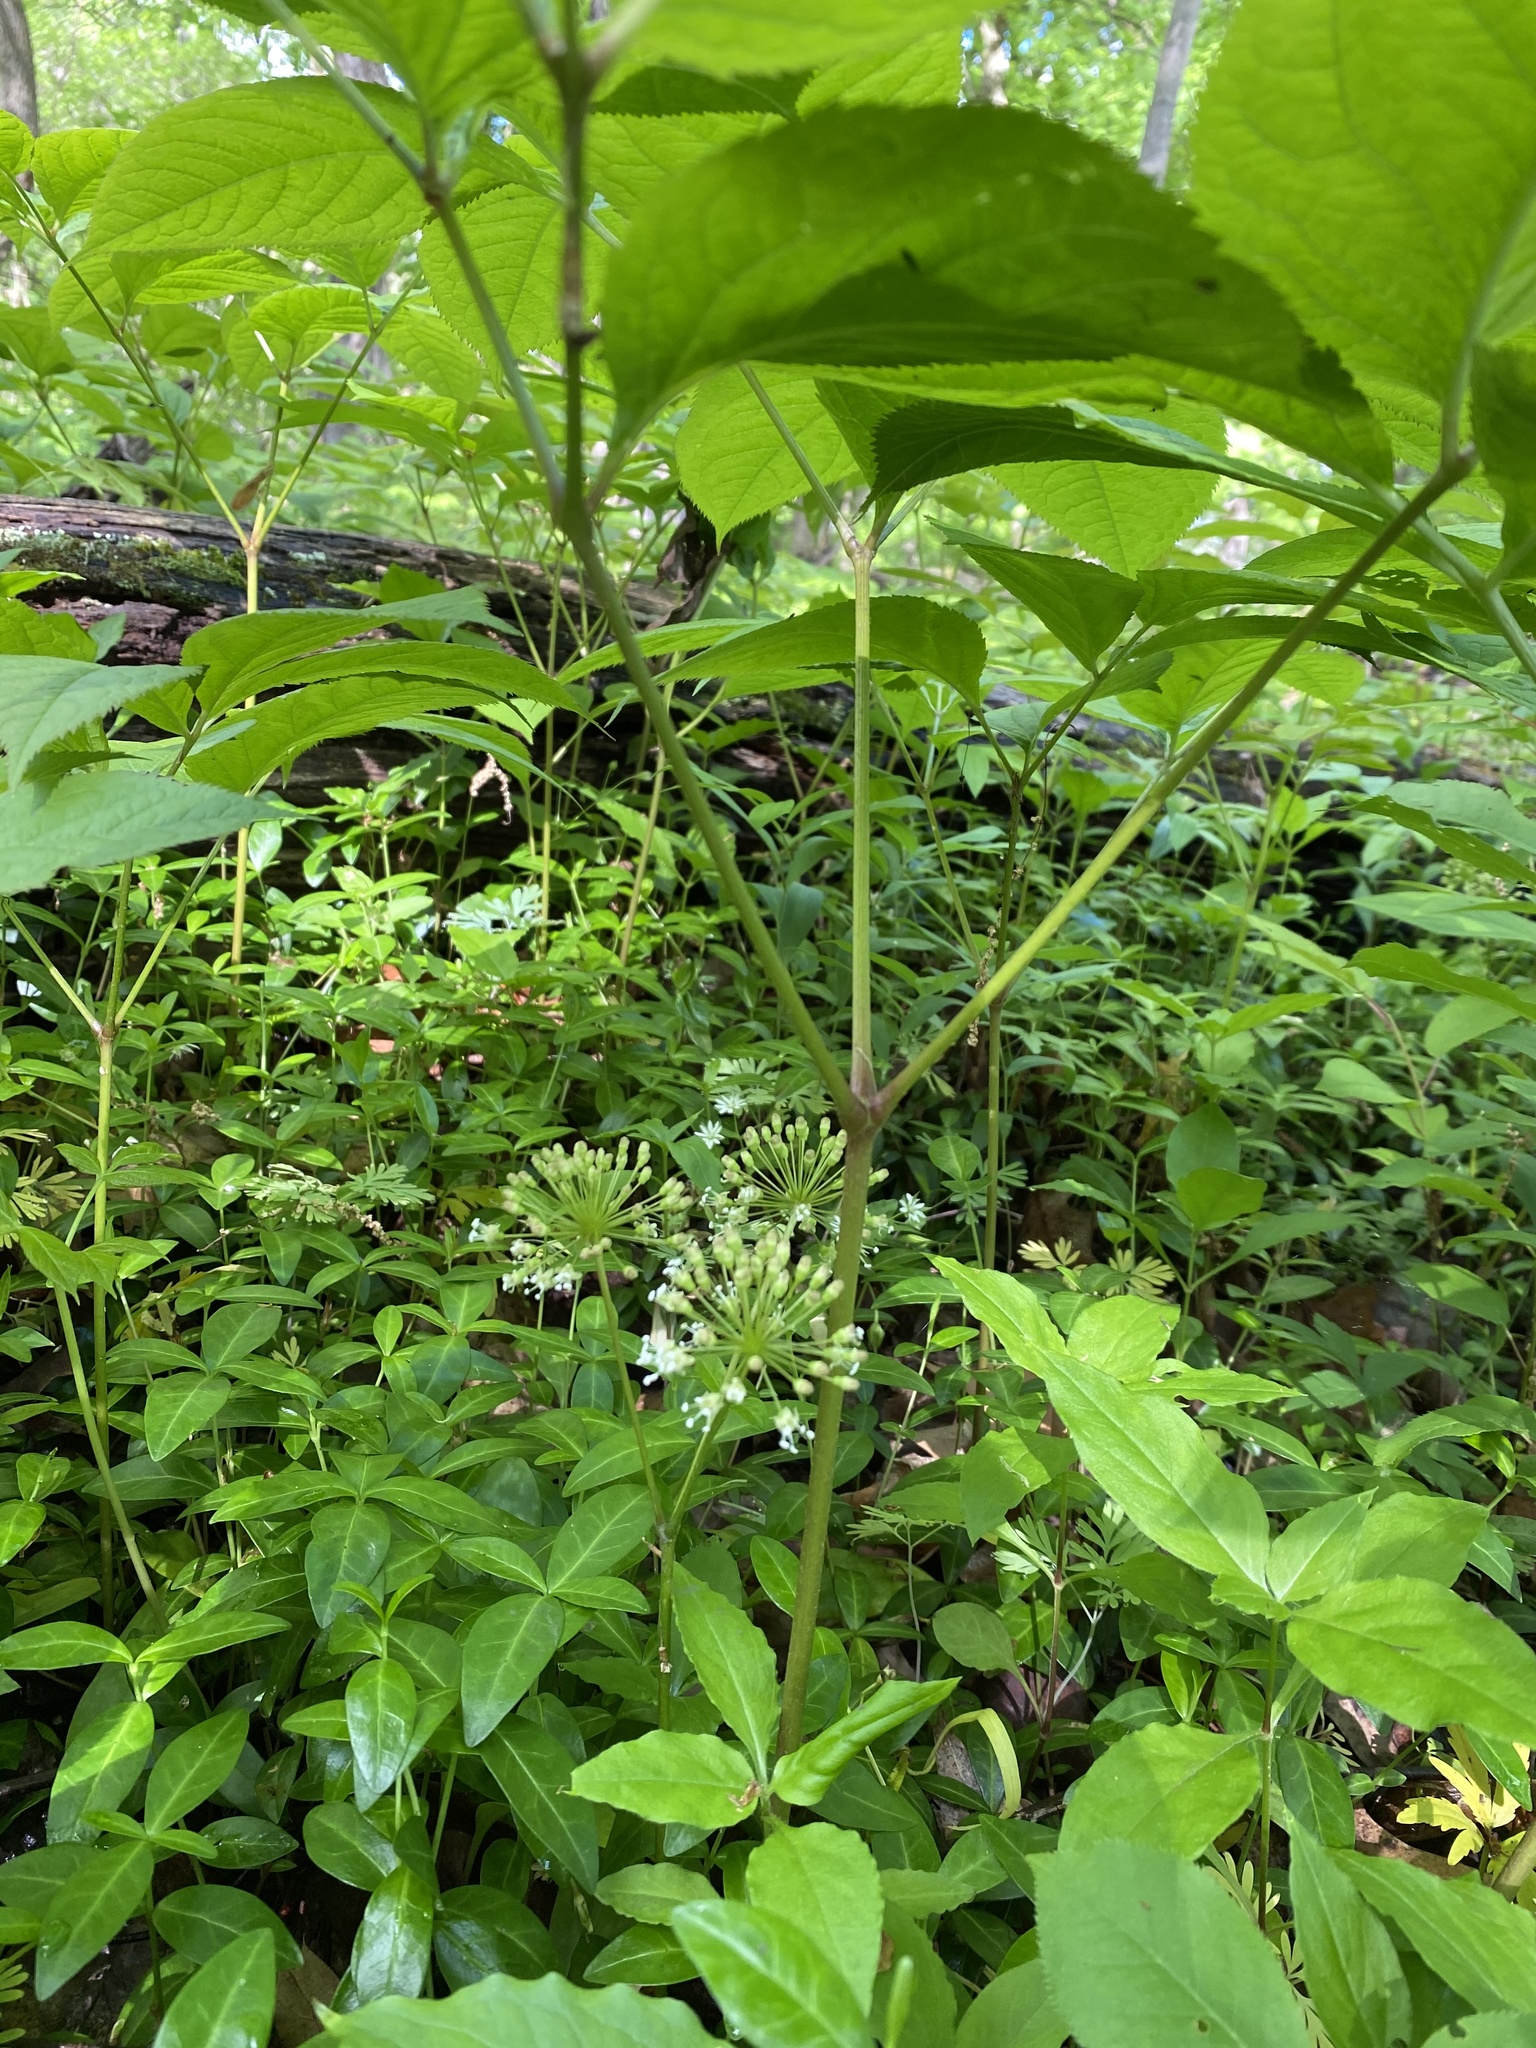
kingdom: Plantae
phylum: Tracheophyta
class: Magnoliopsida
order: Apiales
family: Araliaceae
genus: Aralia
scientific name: Aralia nudicaulis
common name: Wild sarsaparilla
